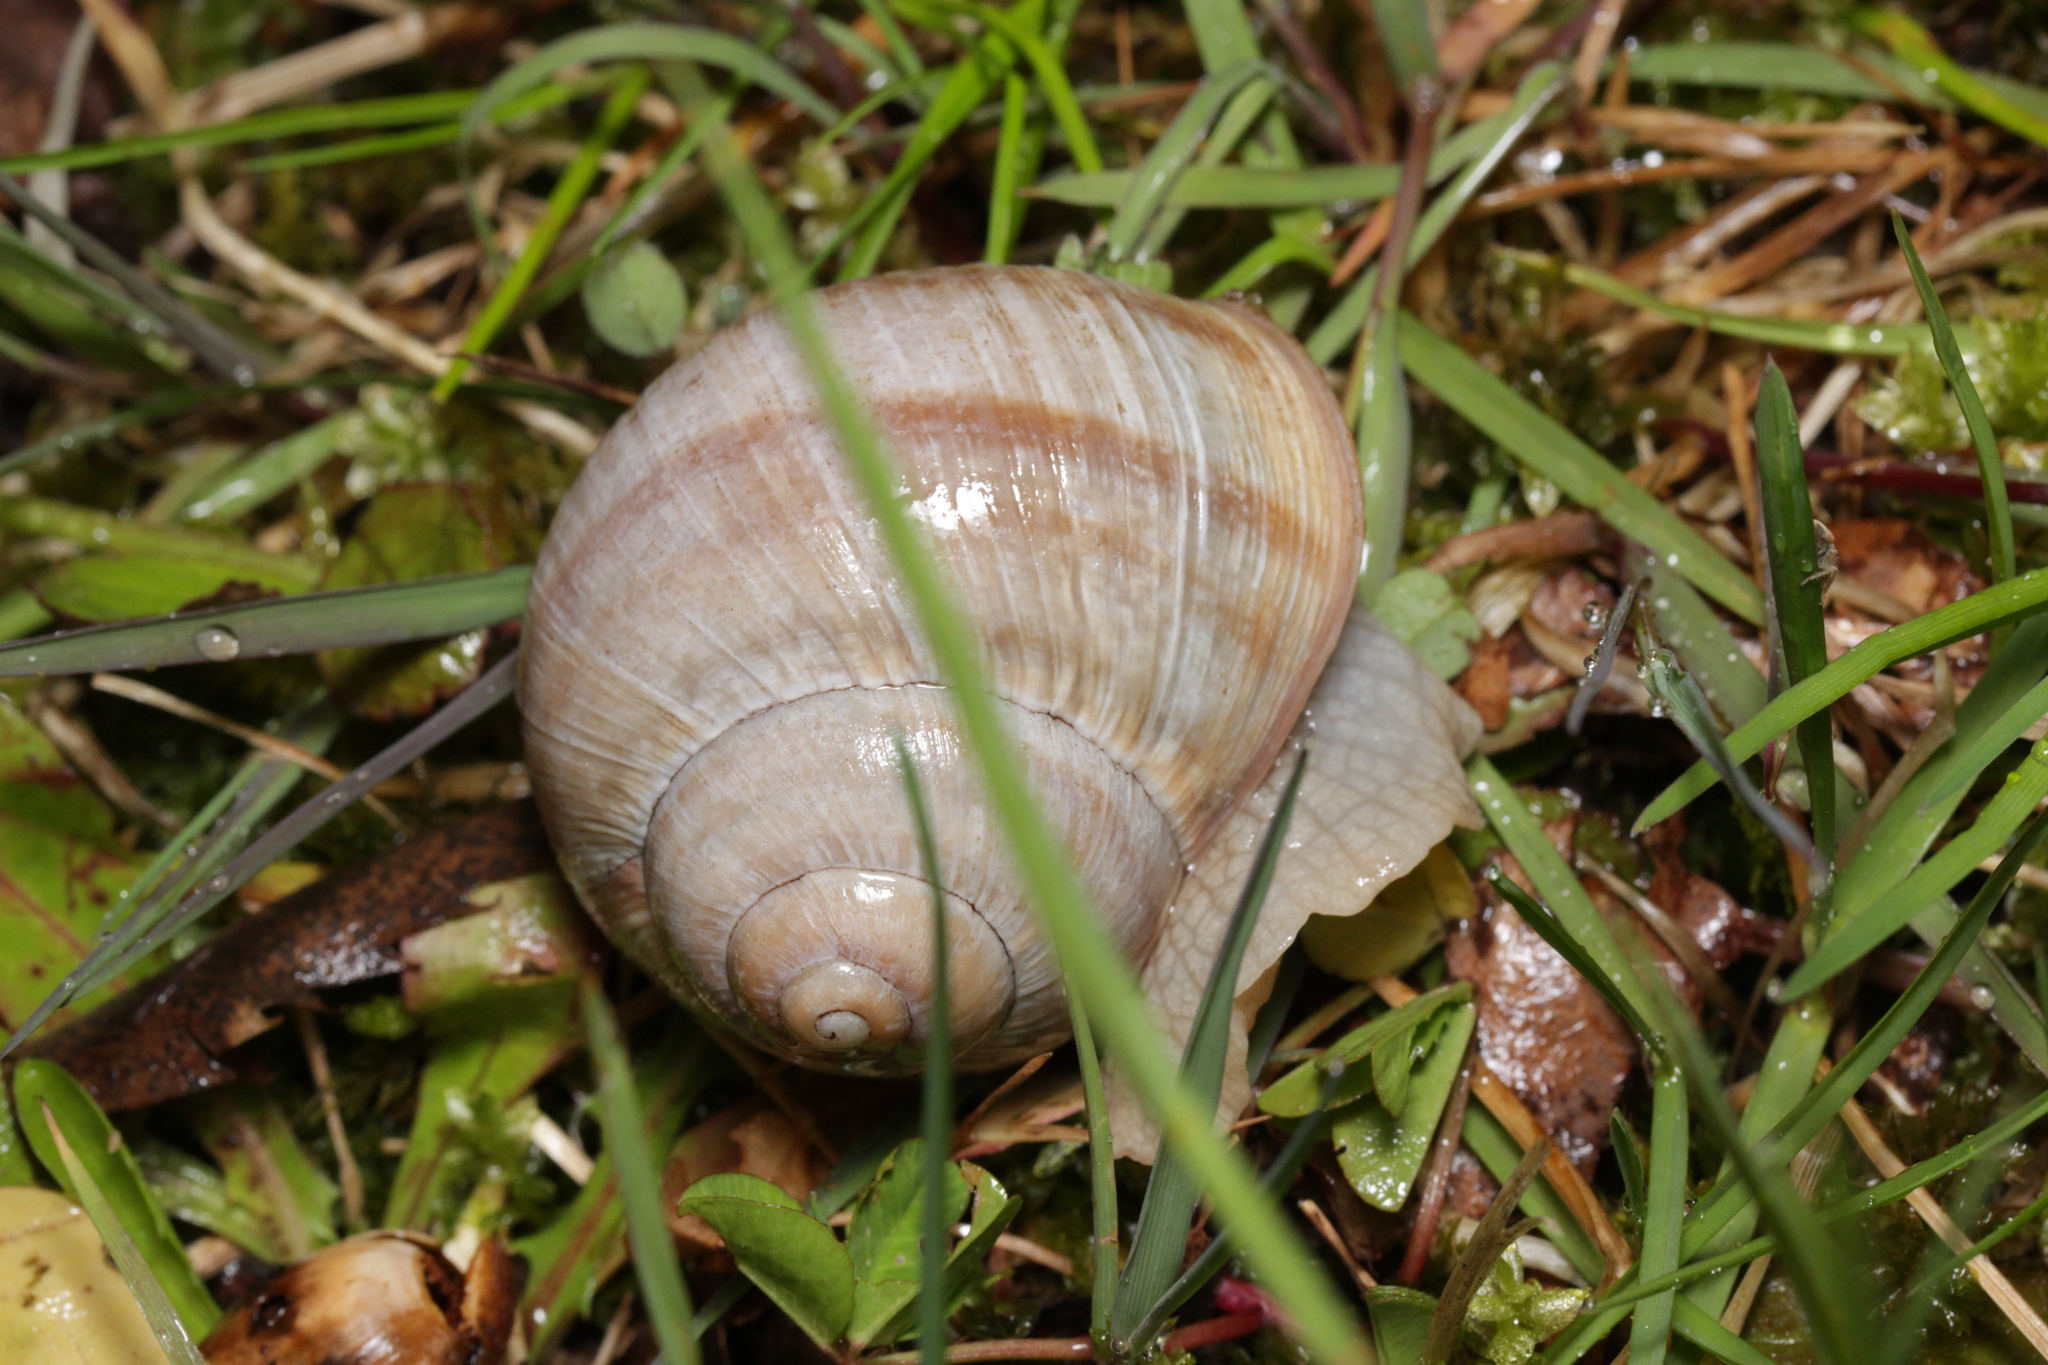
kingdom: Animalia
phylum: Mollusca
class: Gastropoda
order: Stylommatophora
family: Helicidae
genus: Helix
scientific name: Helix pomatia
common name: Roman snail
